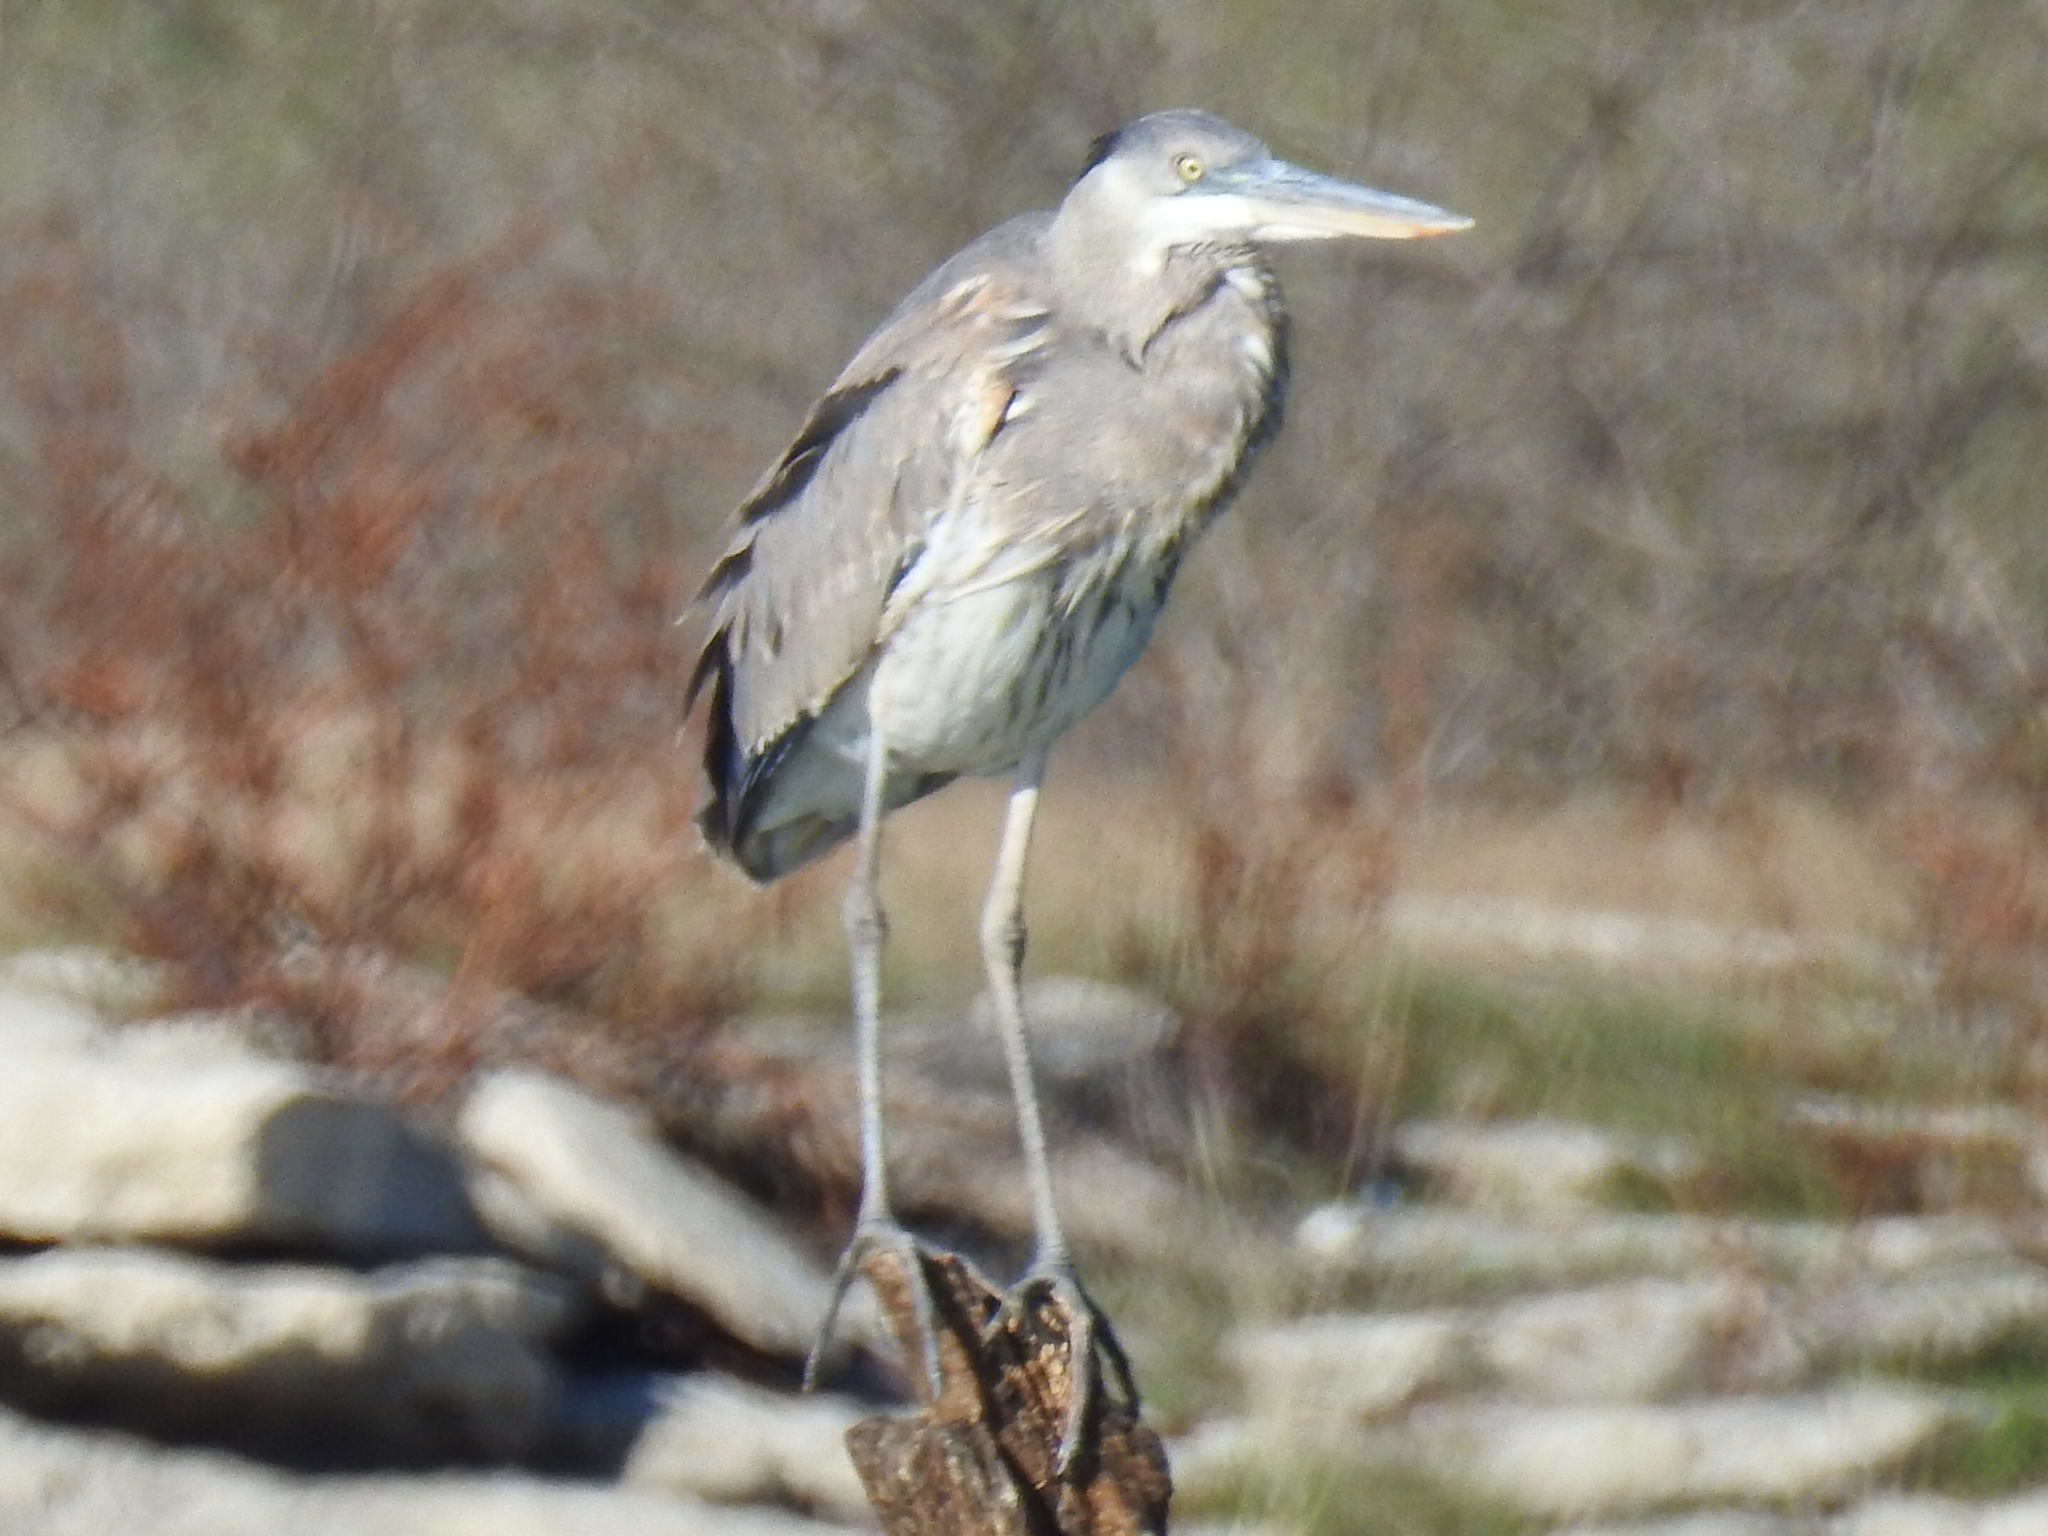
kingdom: Animalia
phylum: Chordata
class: Aves
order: Pelecaniformes
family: Ardeidae
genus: Ardea
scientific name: Ardea herodias
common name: Great blue heron
